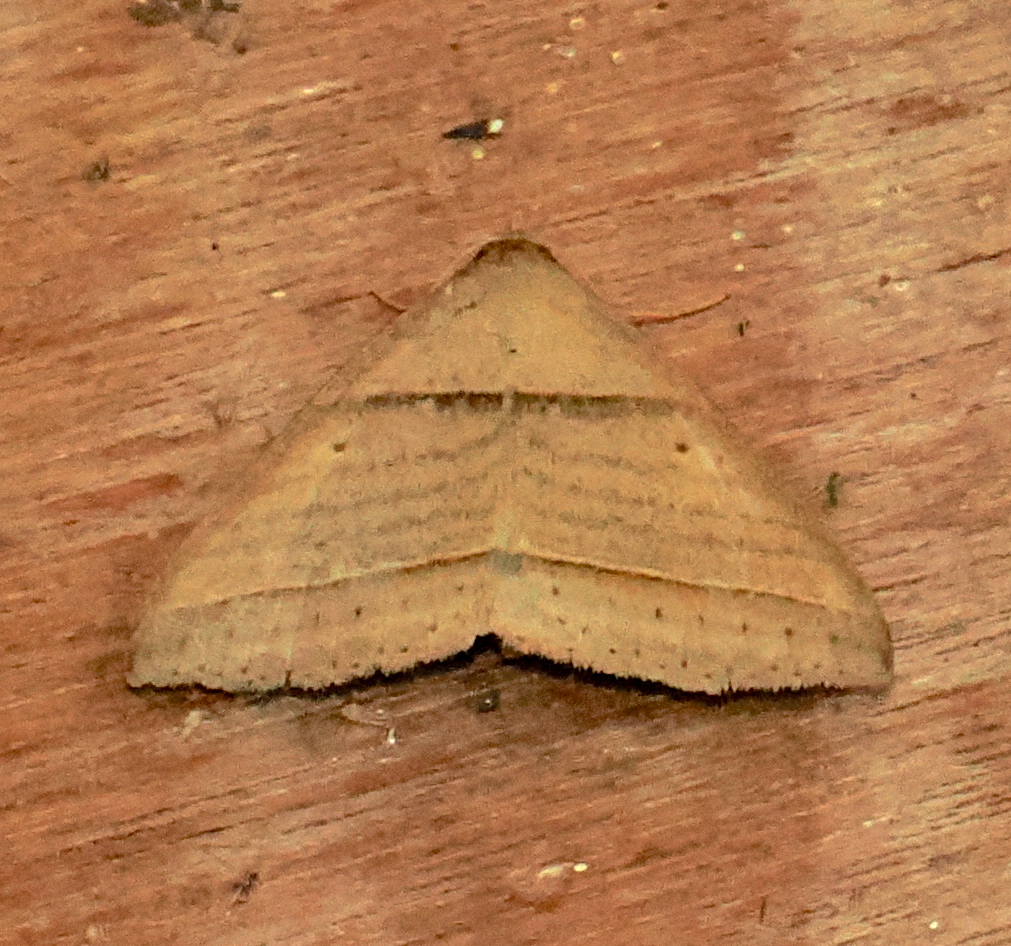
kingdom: Animalia
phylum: Arthropoda
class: Insecta
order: Lepidoptera
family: Erebidae
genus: Perasia
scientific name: Perasia helvina
